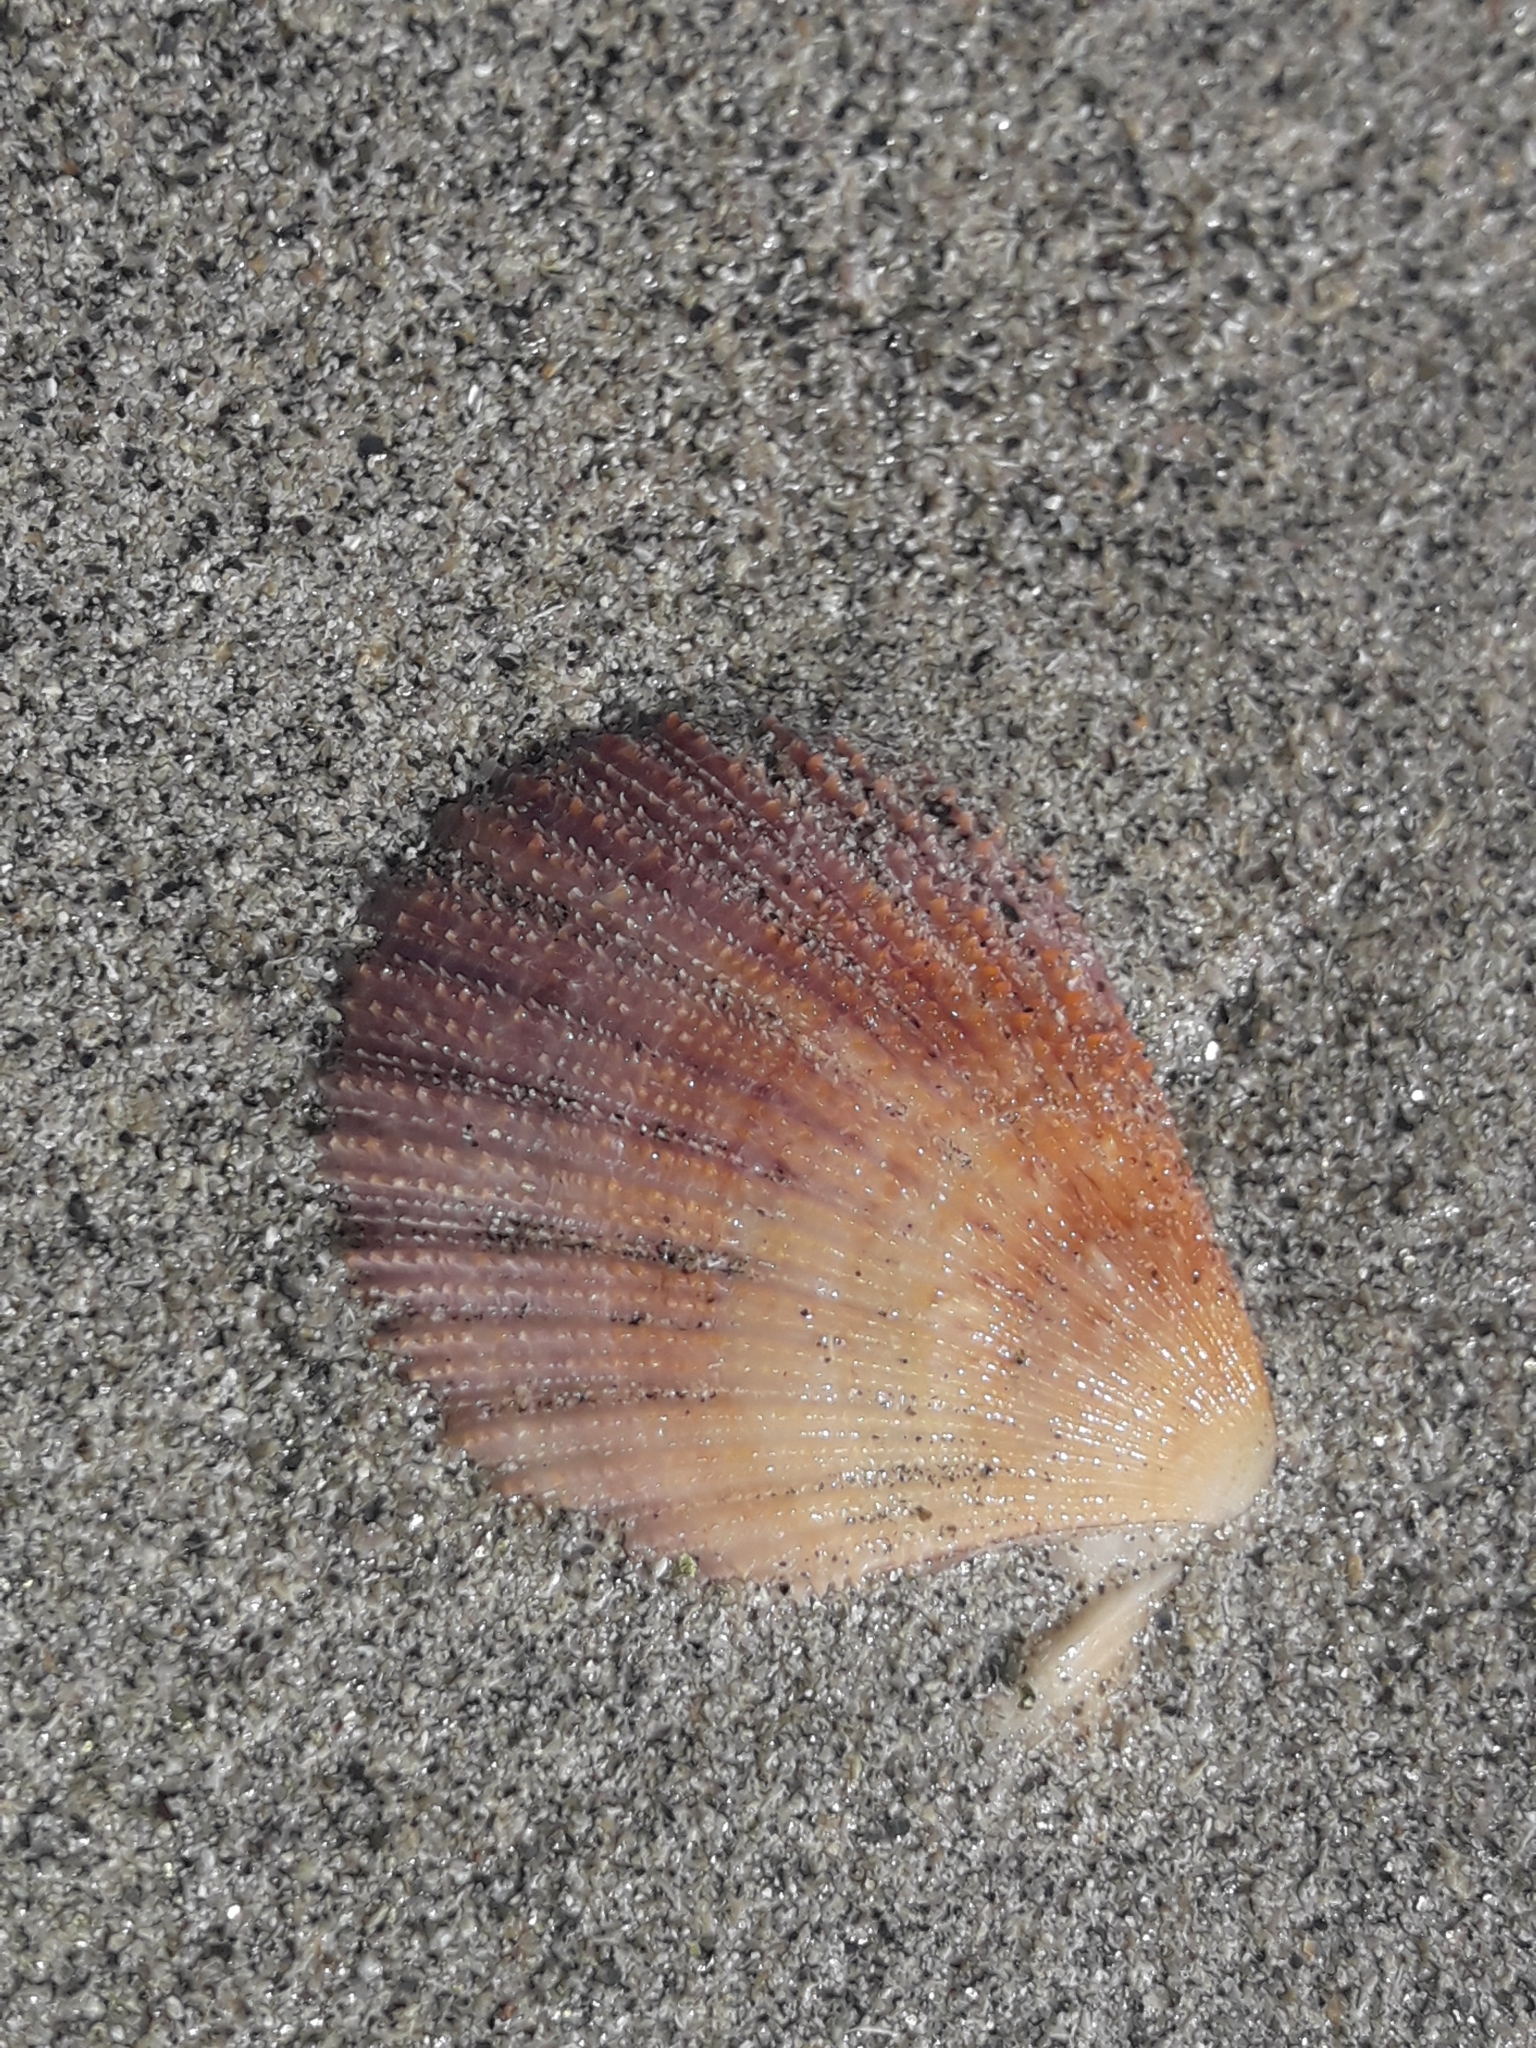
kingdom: Animalia
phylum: Mollusca
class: Bivalvia
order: Pectinida
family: Pectinidae
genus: Talochlamys
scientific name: Talochlamys zelandiae
